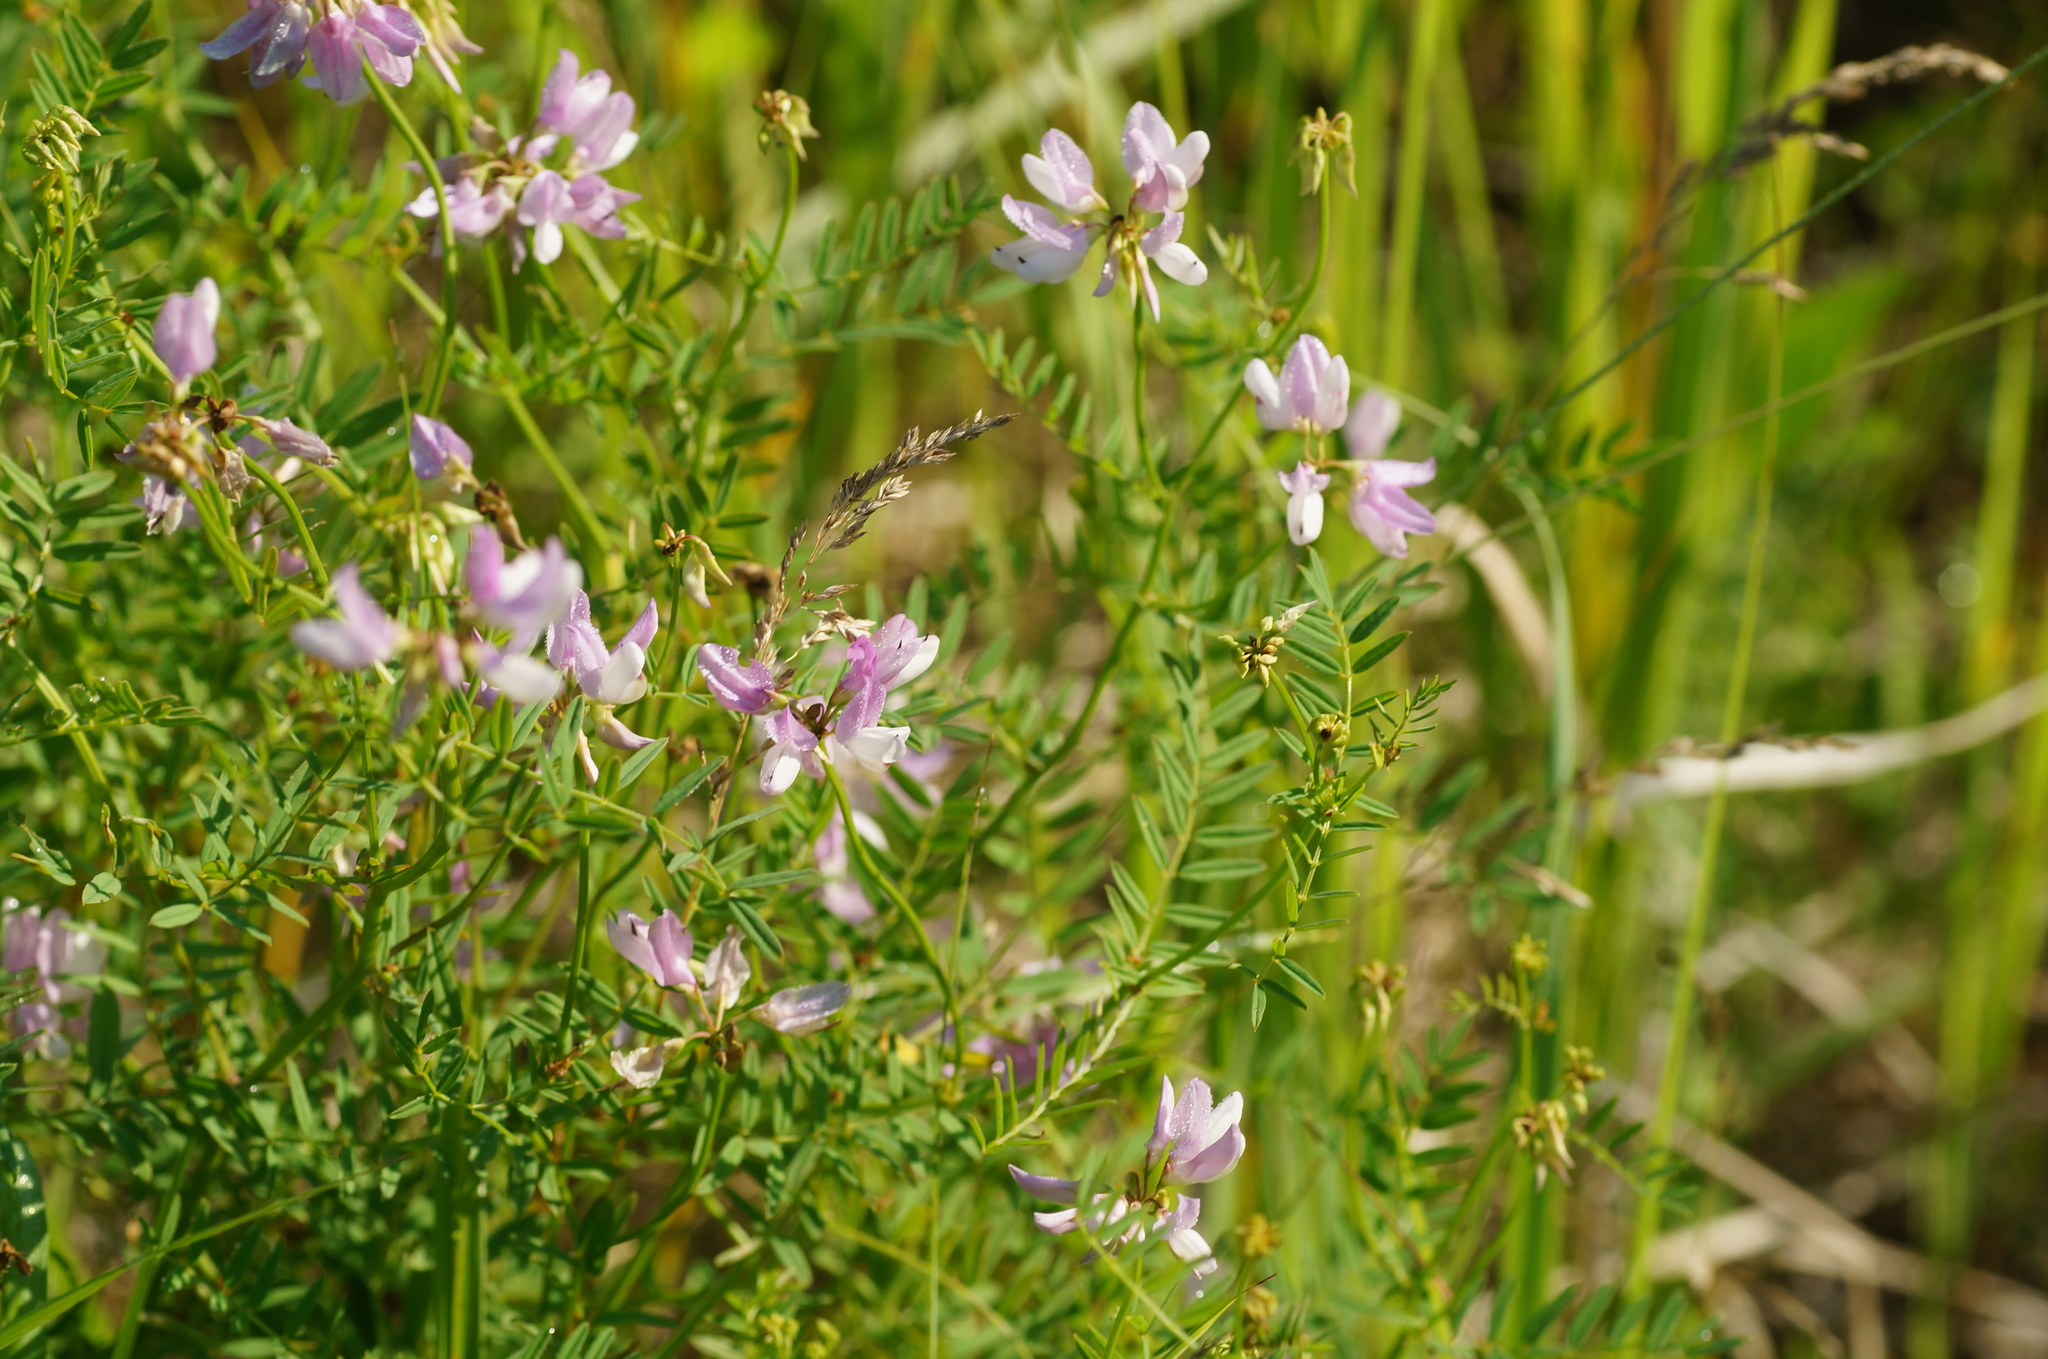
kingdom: Plantae
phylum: Tracheophyta
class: Magnoliopsida
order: Fabales
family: Fabaceae
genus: Coronilla
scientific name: Coronilla varia
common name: Crownvetch
